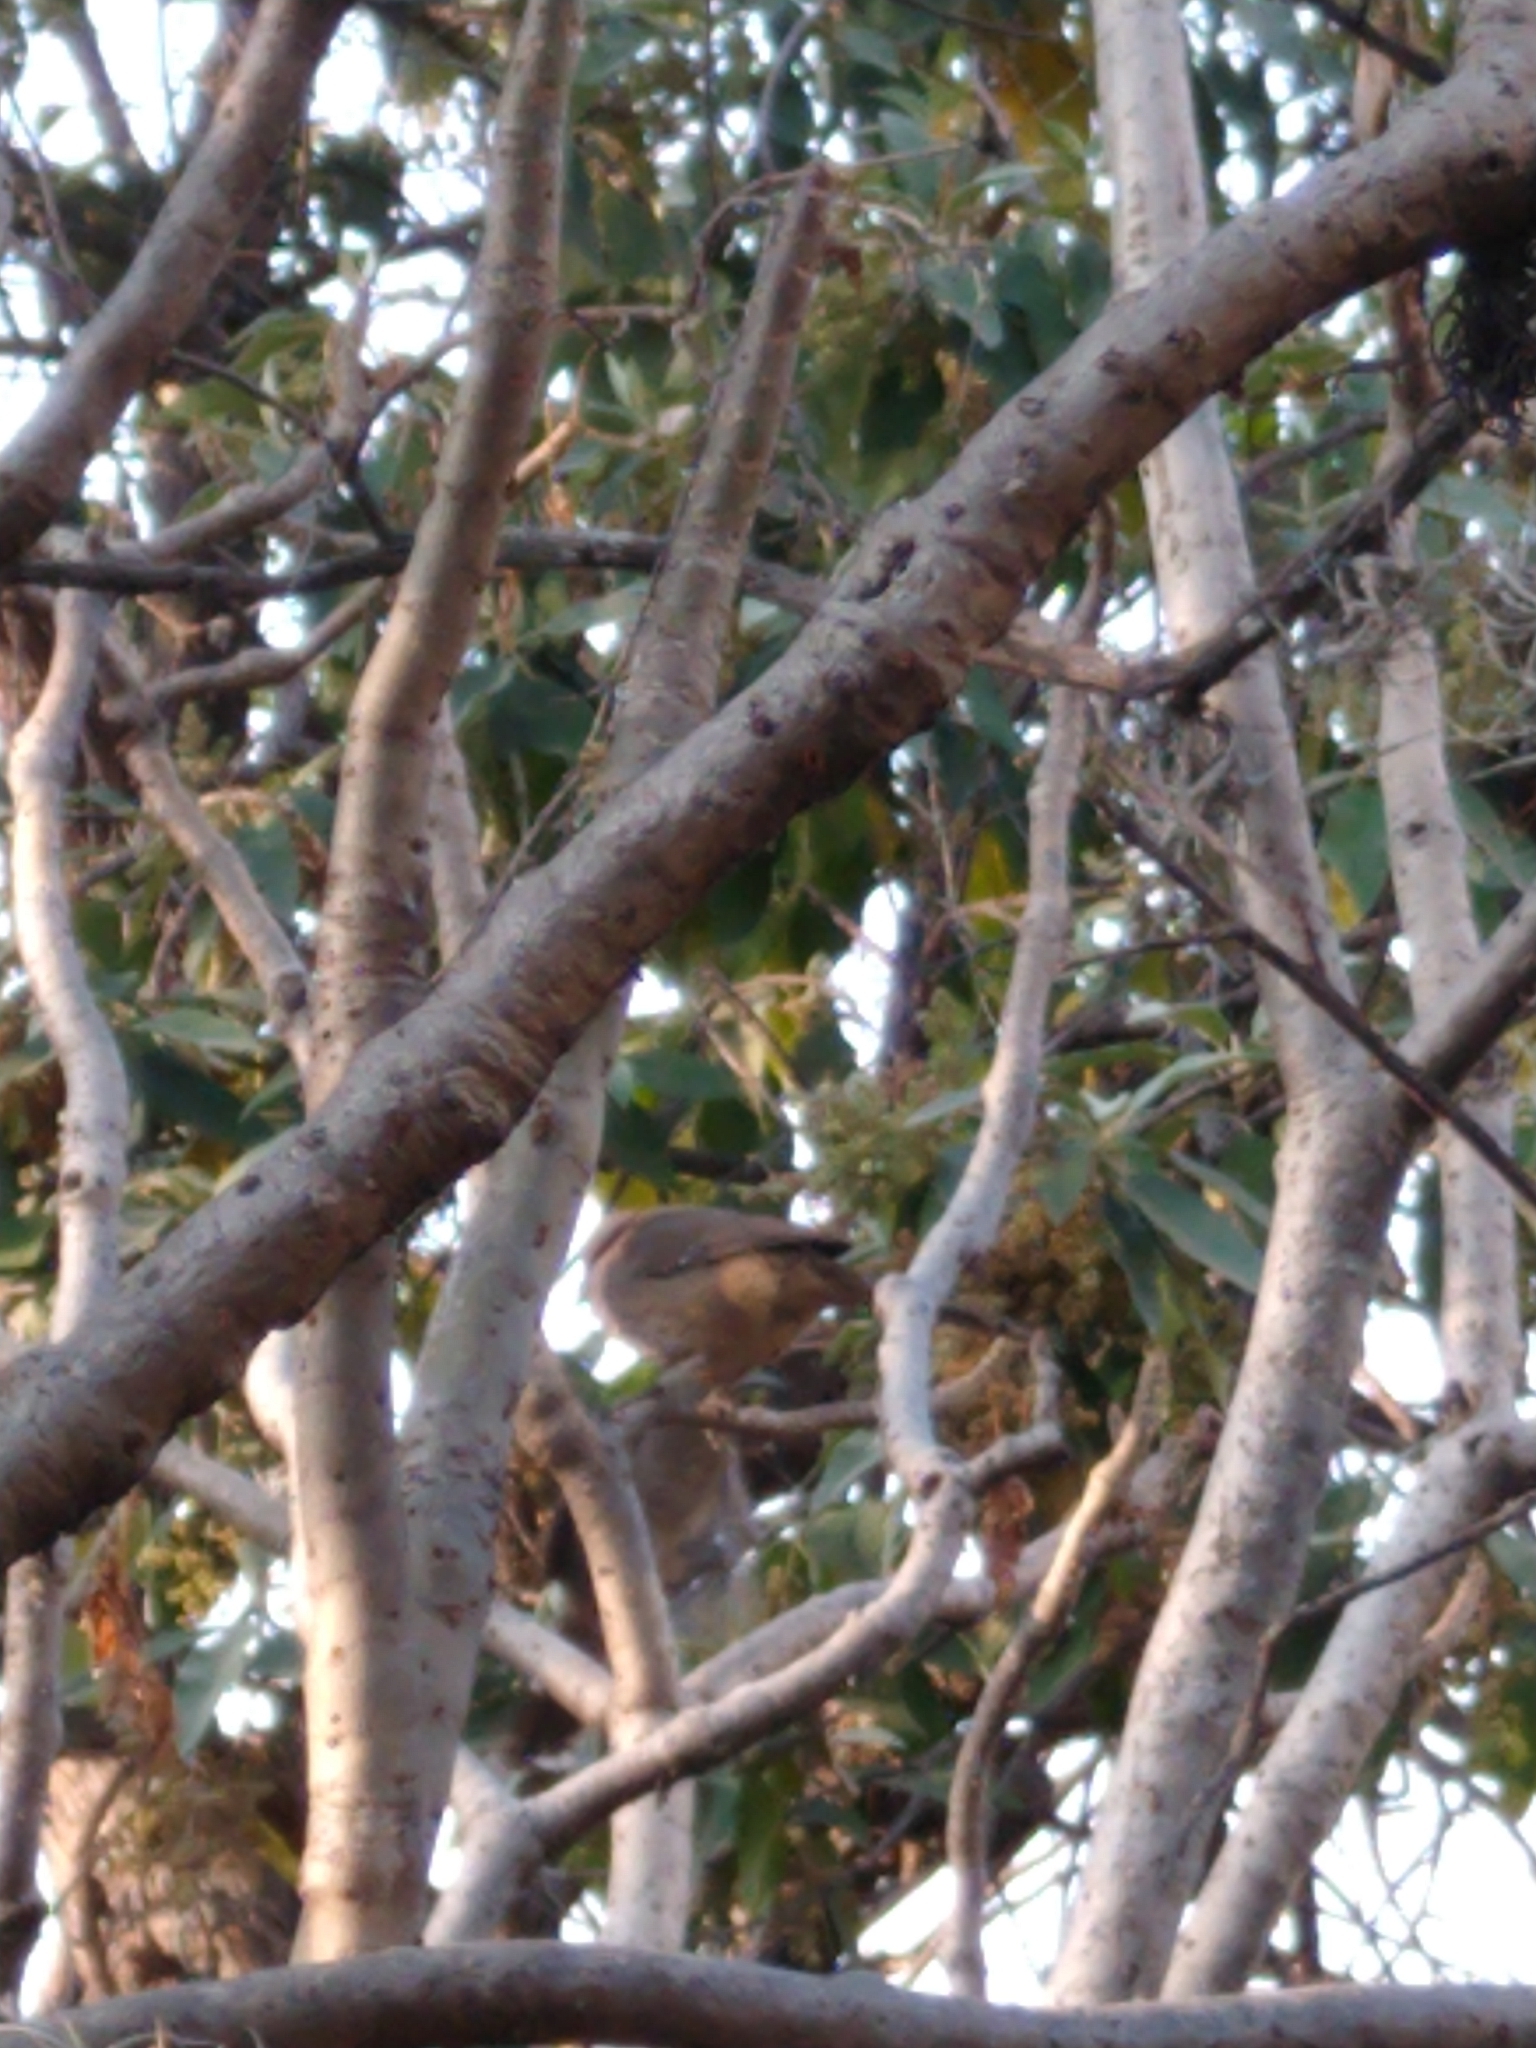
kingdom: Animalia
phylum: Chordata
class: Aves
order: Passeriformes
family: Mimidae
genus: Toxostoma
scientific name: Toxostoma curvirostre
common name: Curve-billed thrasher
